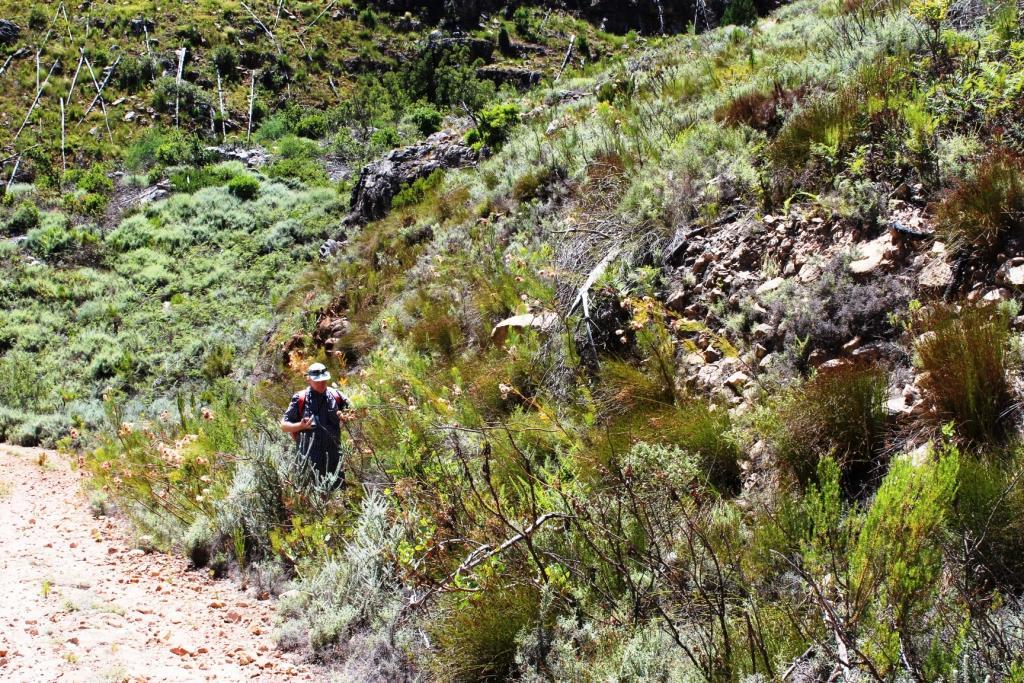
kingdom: Plantae
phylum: Tracheophyta
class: Magnoliopsida
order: Proteales
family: Proteaceae
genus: Serruria
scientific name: Serruria florida
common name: Blushing bride
